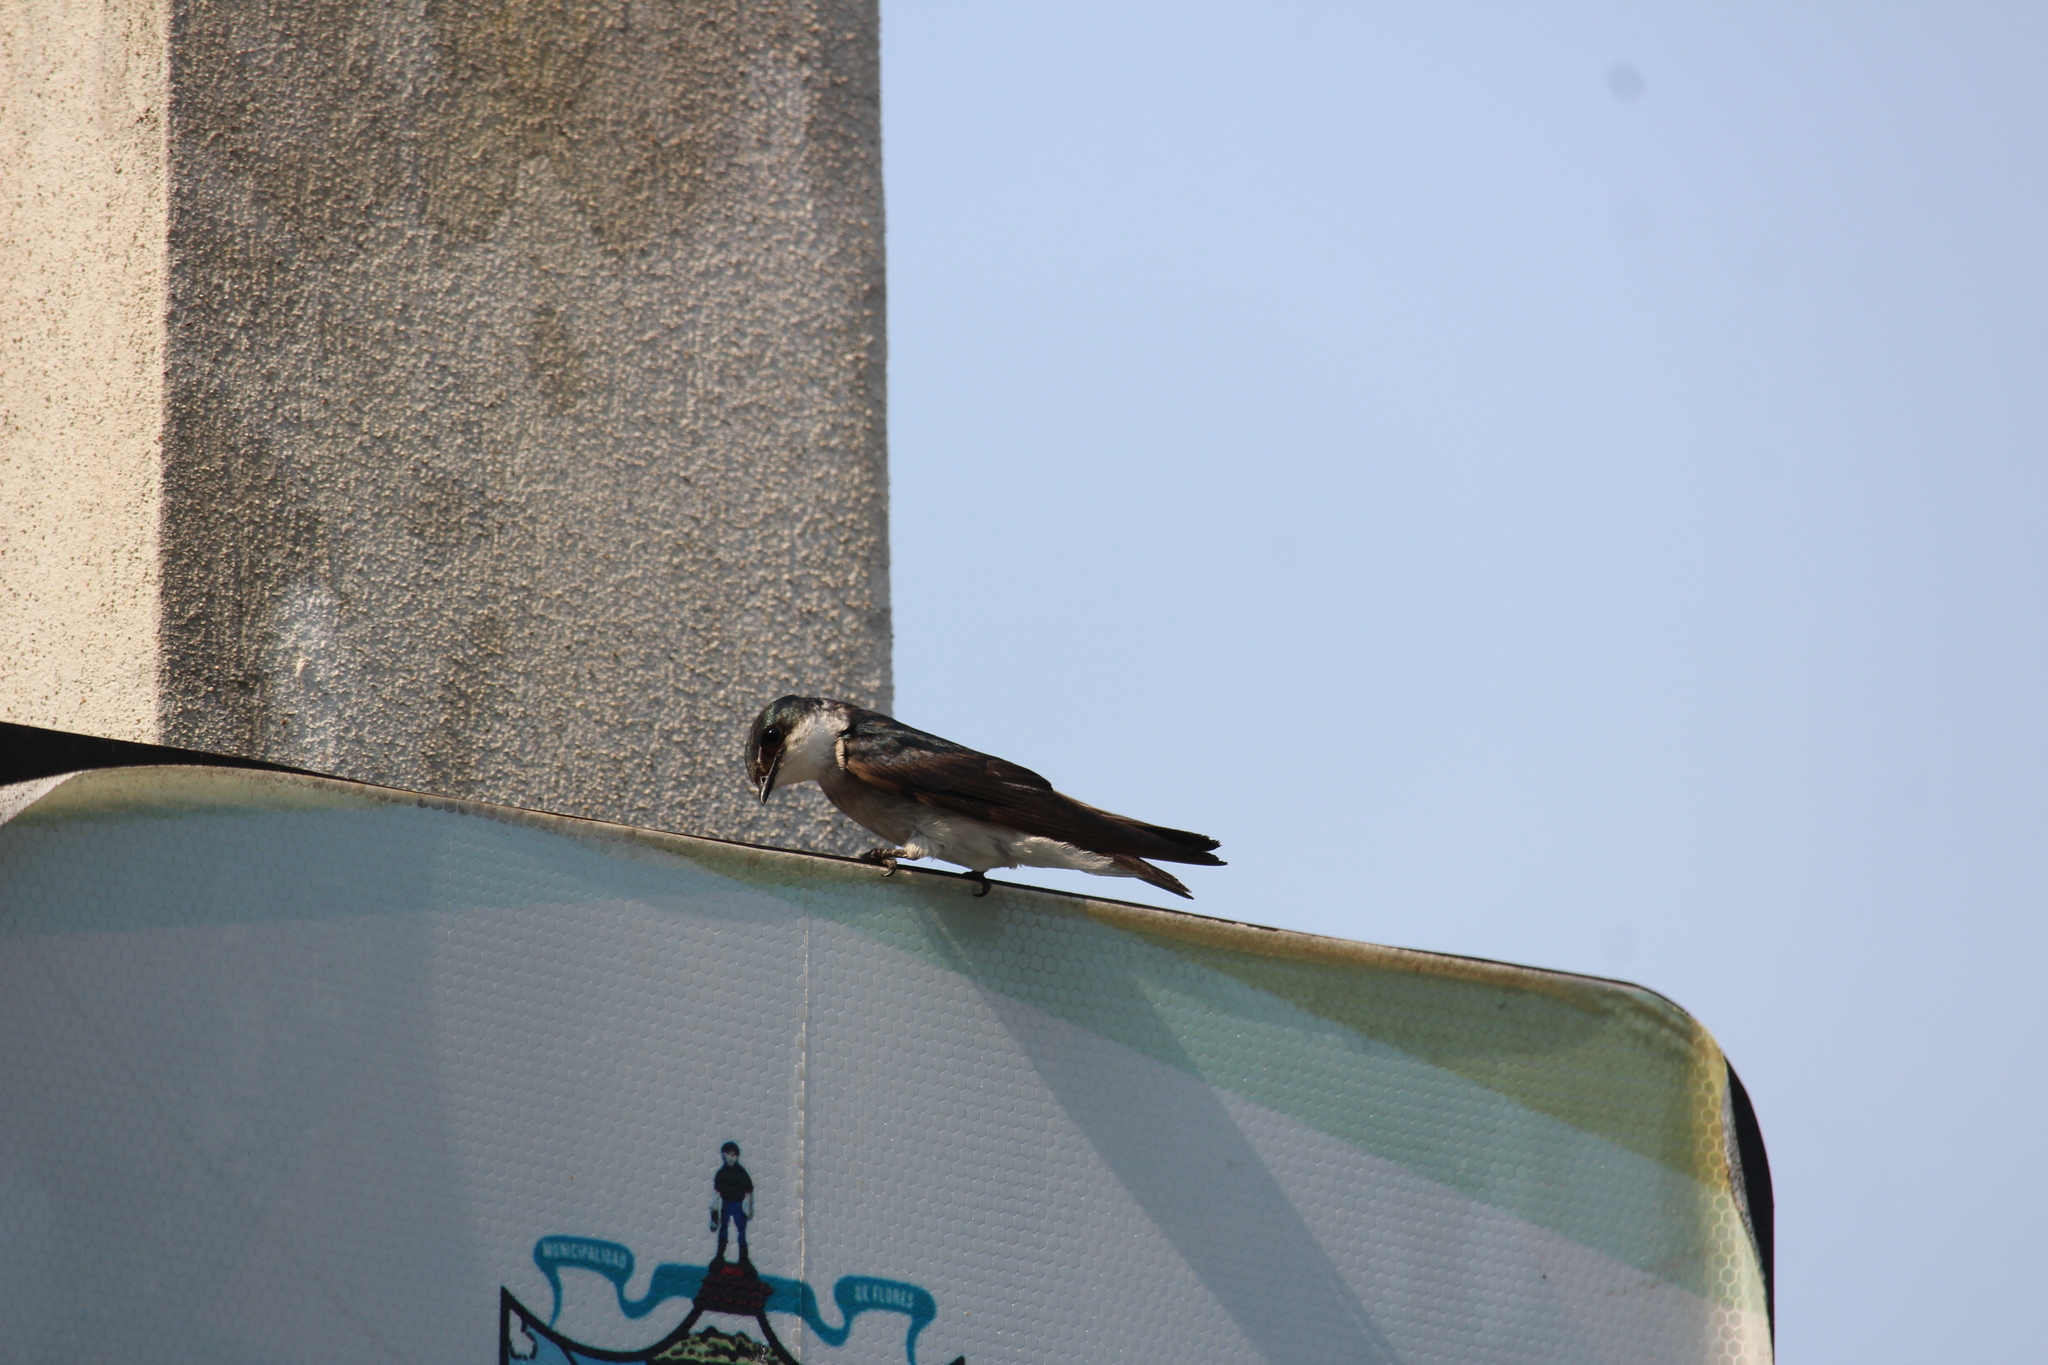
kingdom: Animalia
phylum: Chordata
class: Aves
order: Passeriformes
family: Hirundinidae
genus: Tachycineta
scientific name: Tachycineta albilinea
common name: Mangrove swallow
